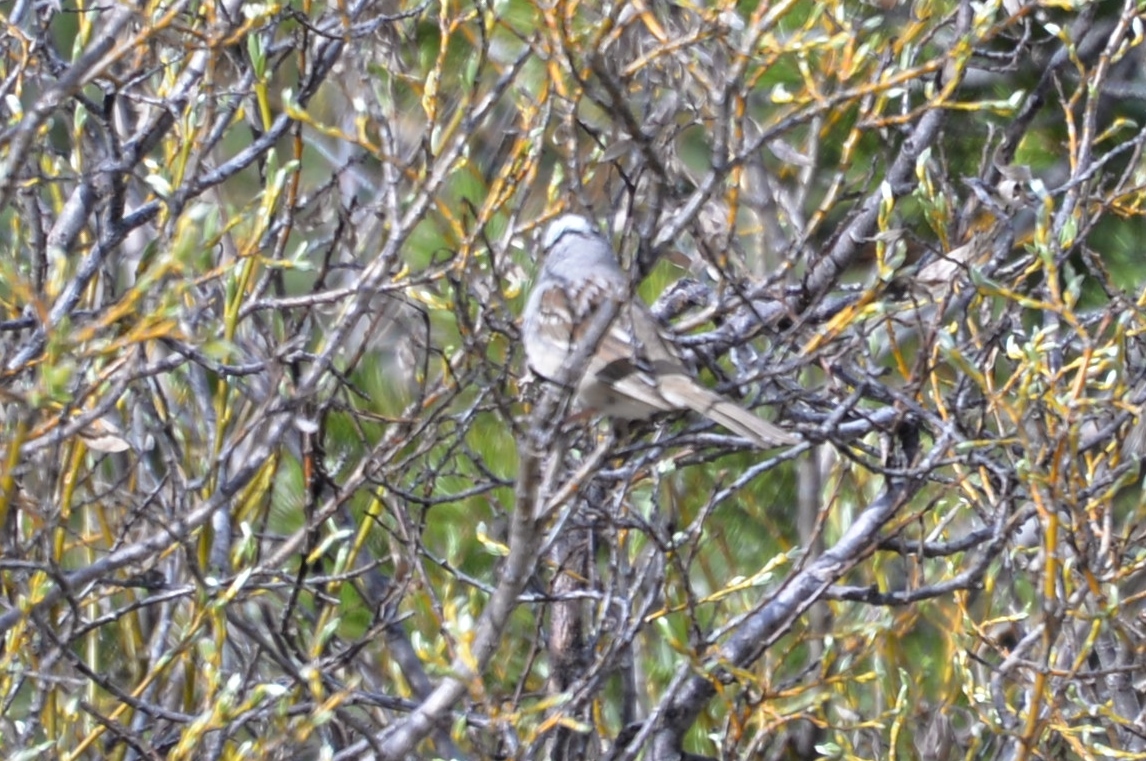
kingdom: Animalia
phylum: Chordata
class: Aves
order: Passeriformes
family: Passerellidae
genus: Zonotrichia
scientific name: Zonotrichia leucophrys
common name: White-crowned sparrow
